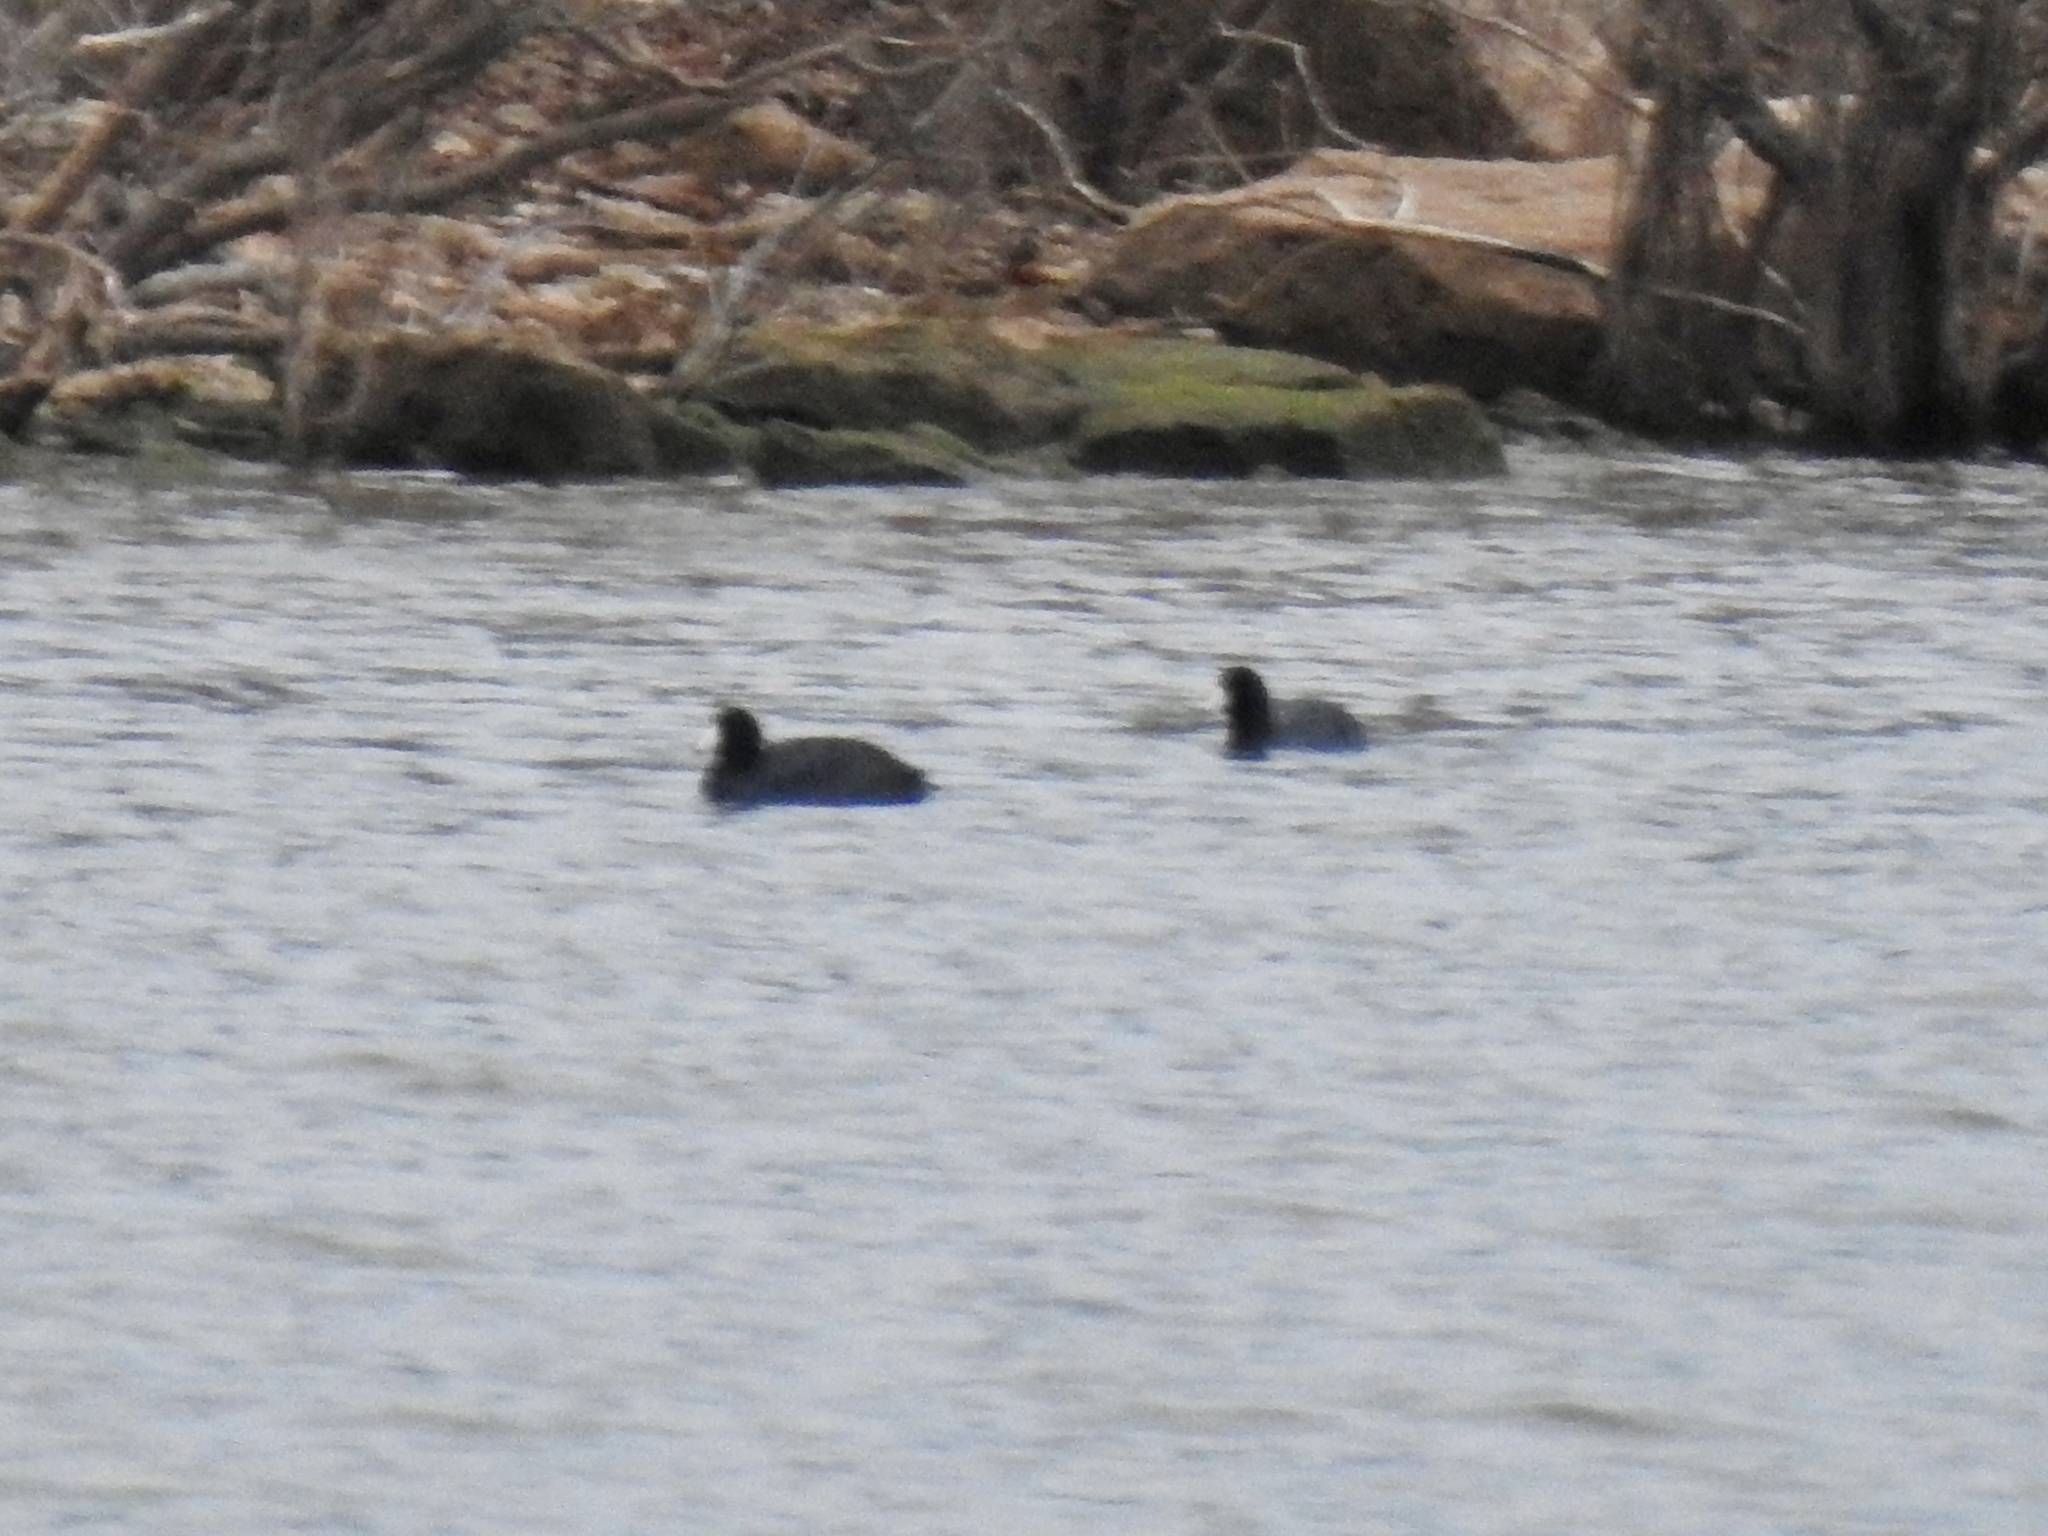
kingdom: Animalia
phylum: Chordata
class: Aves
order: Gruiformes
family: Rallidae
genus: Fulica
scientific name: Fulica americana
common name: American coot
